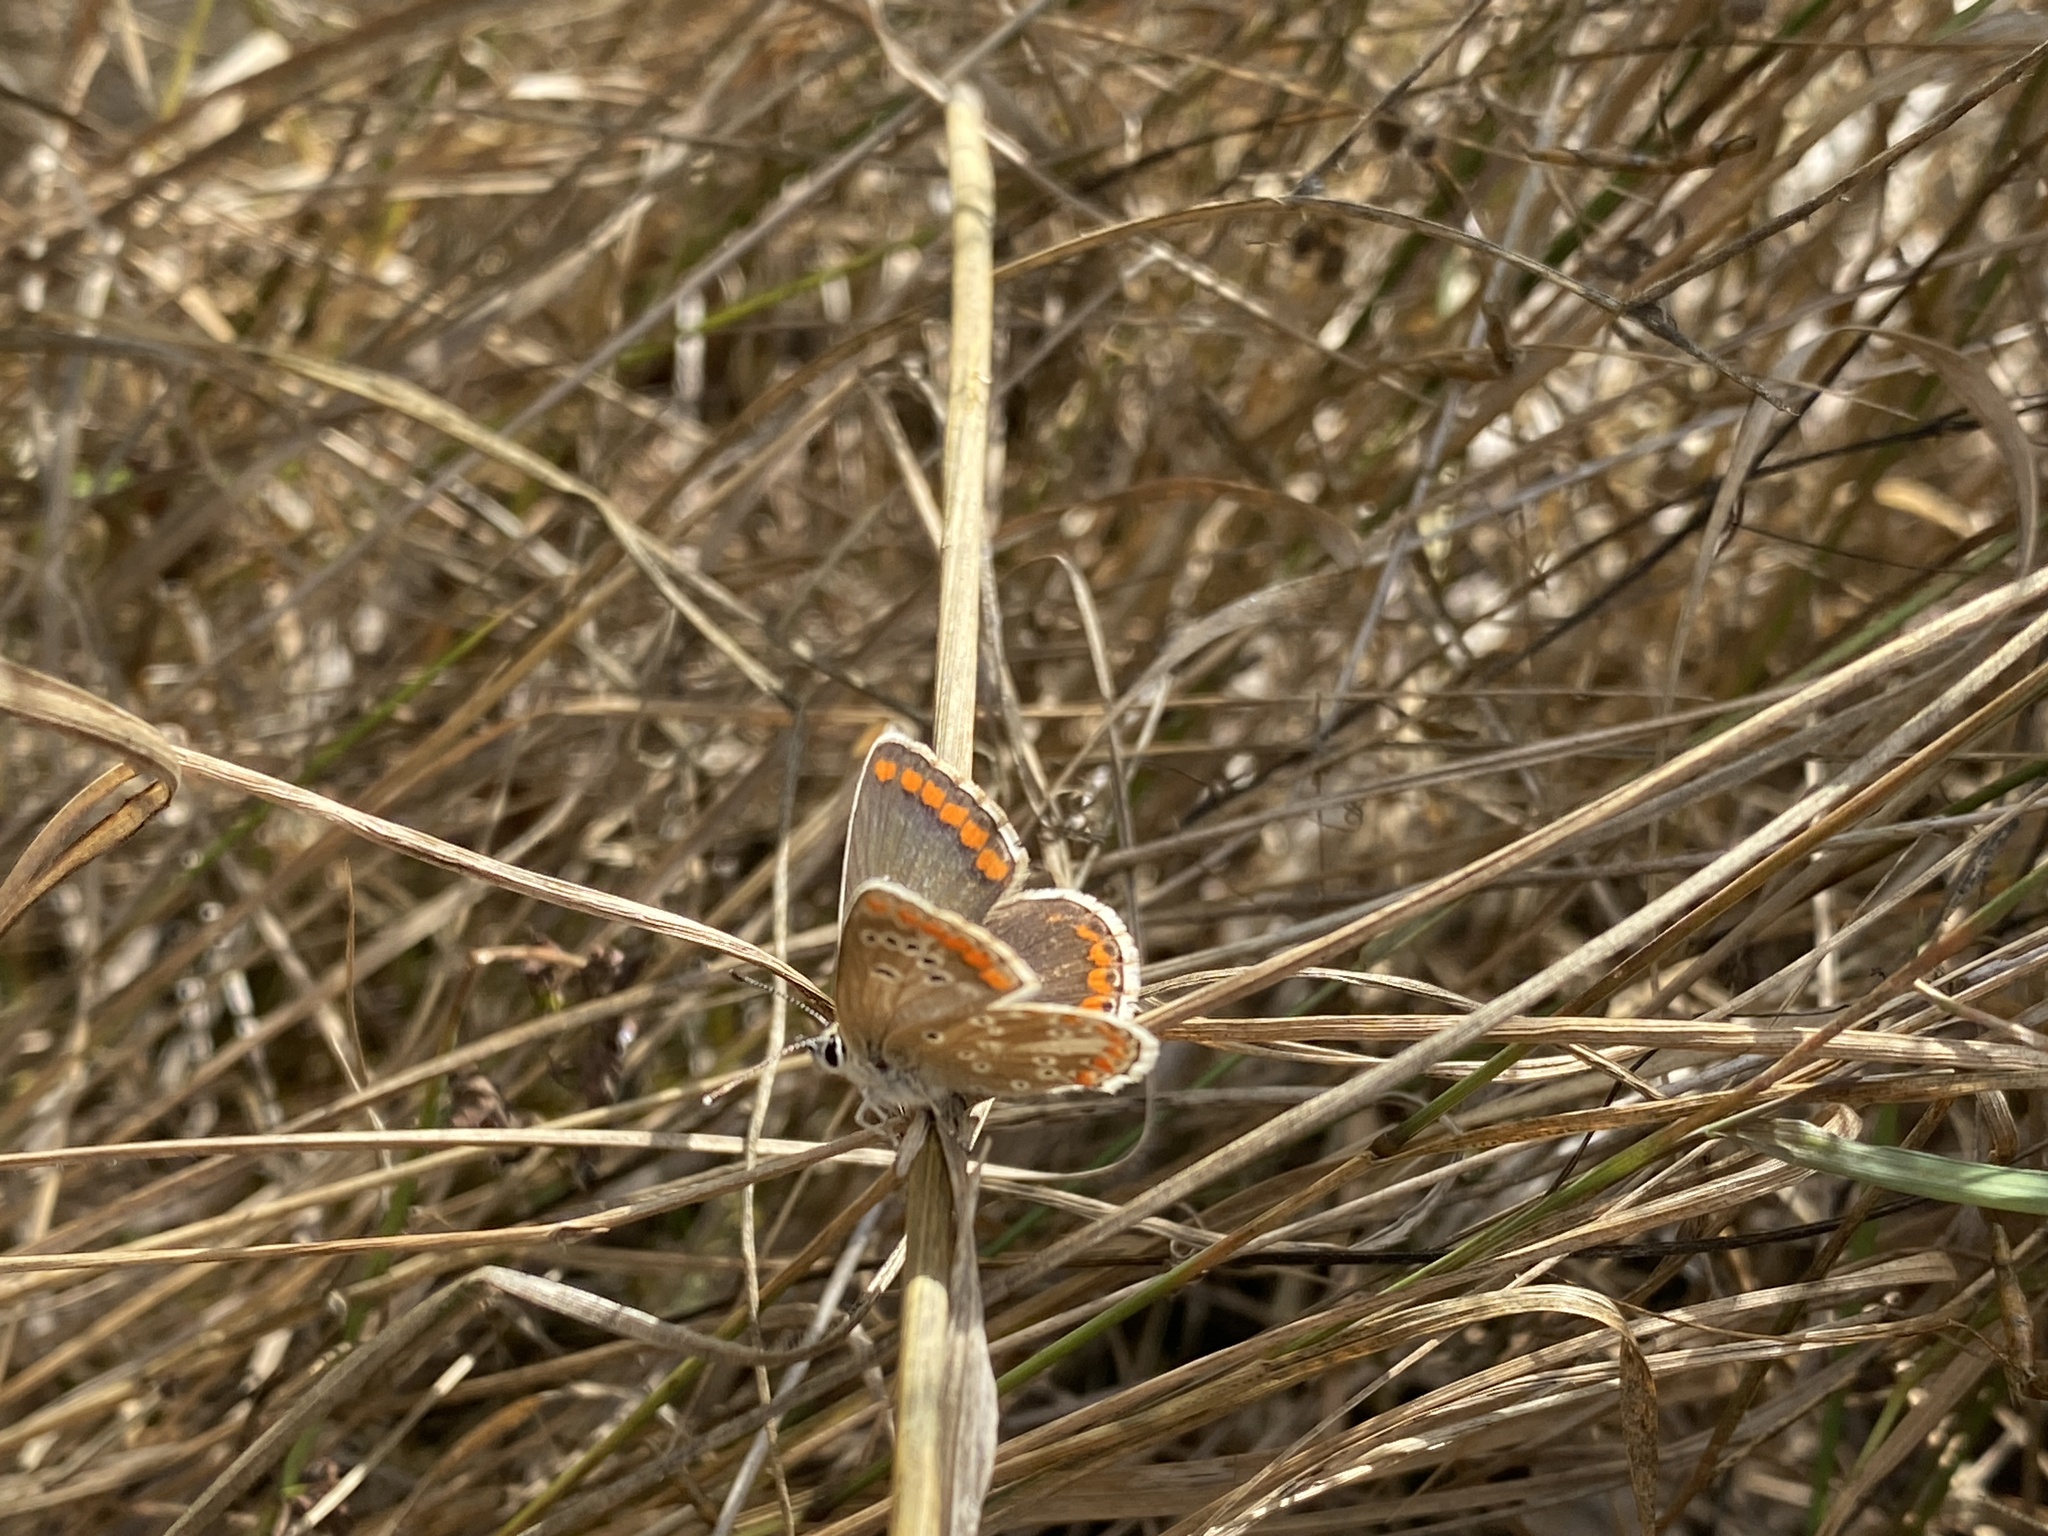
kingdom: Animalia
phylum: Arthropoda
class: Insecta
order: Lepidoptera
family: Lycaenidae
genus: Aricia
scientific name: Aricia agestis
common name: Brown argus
